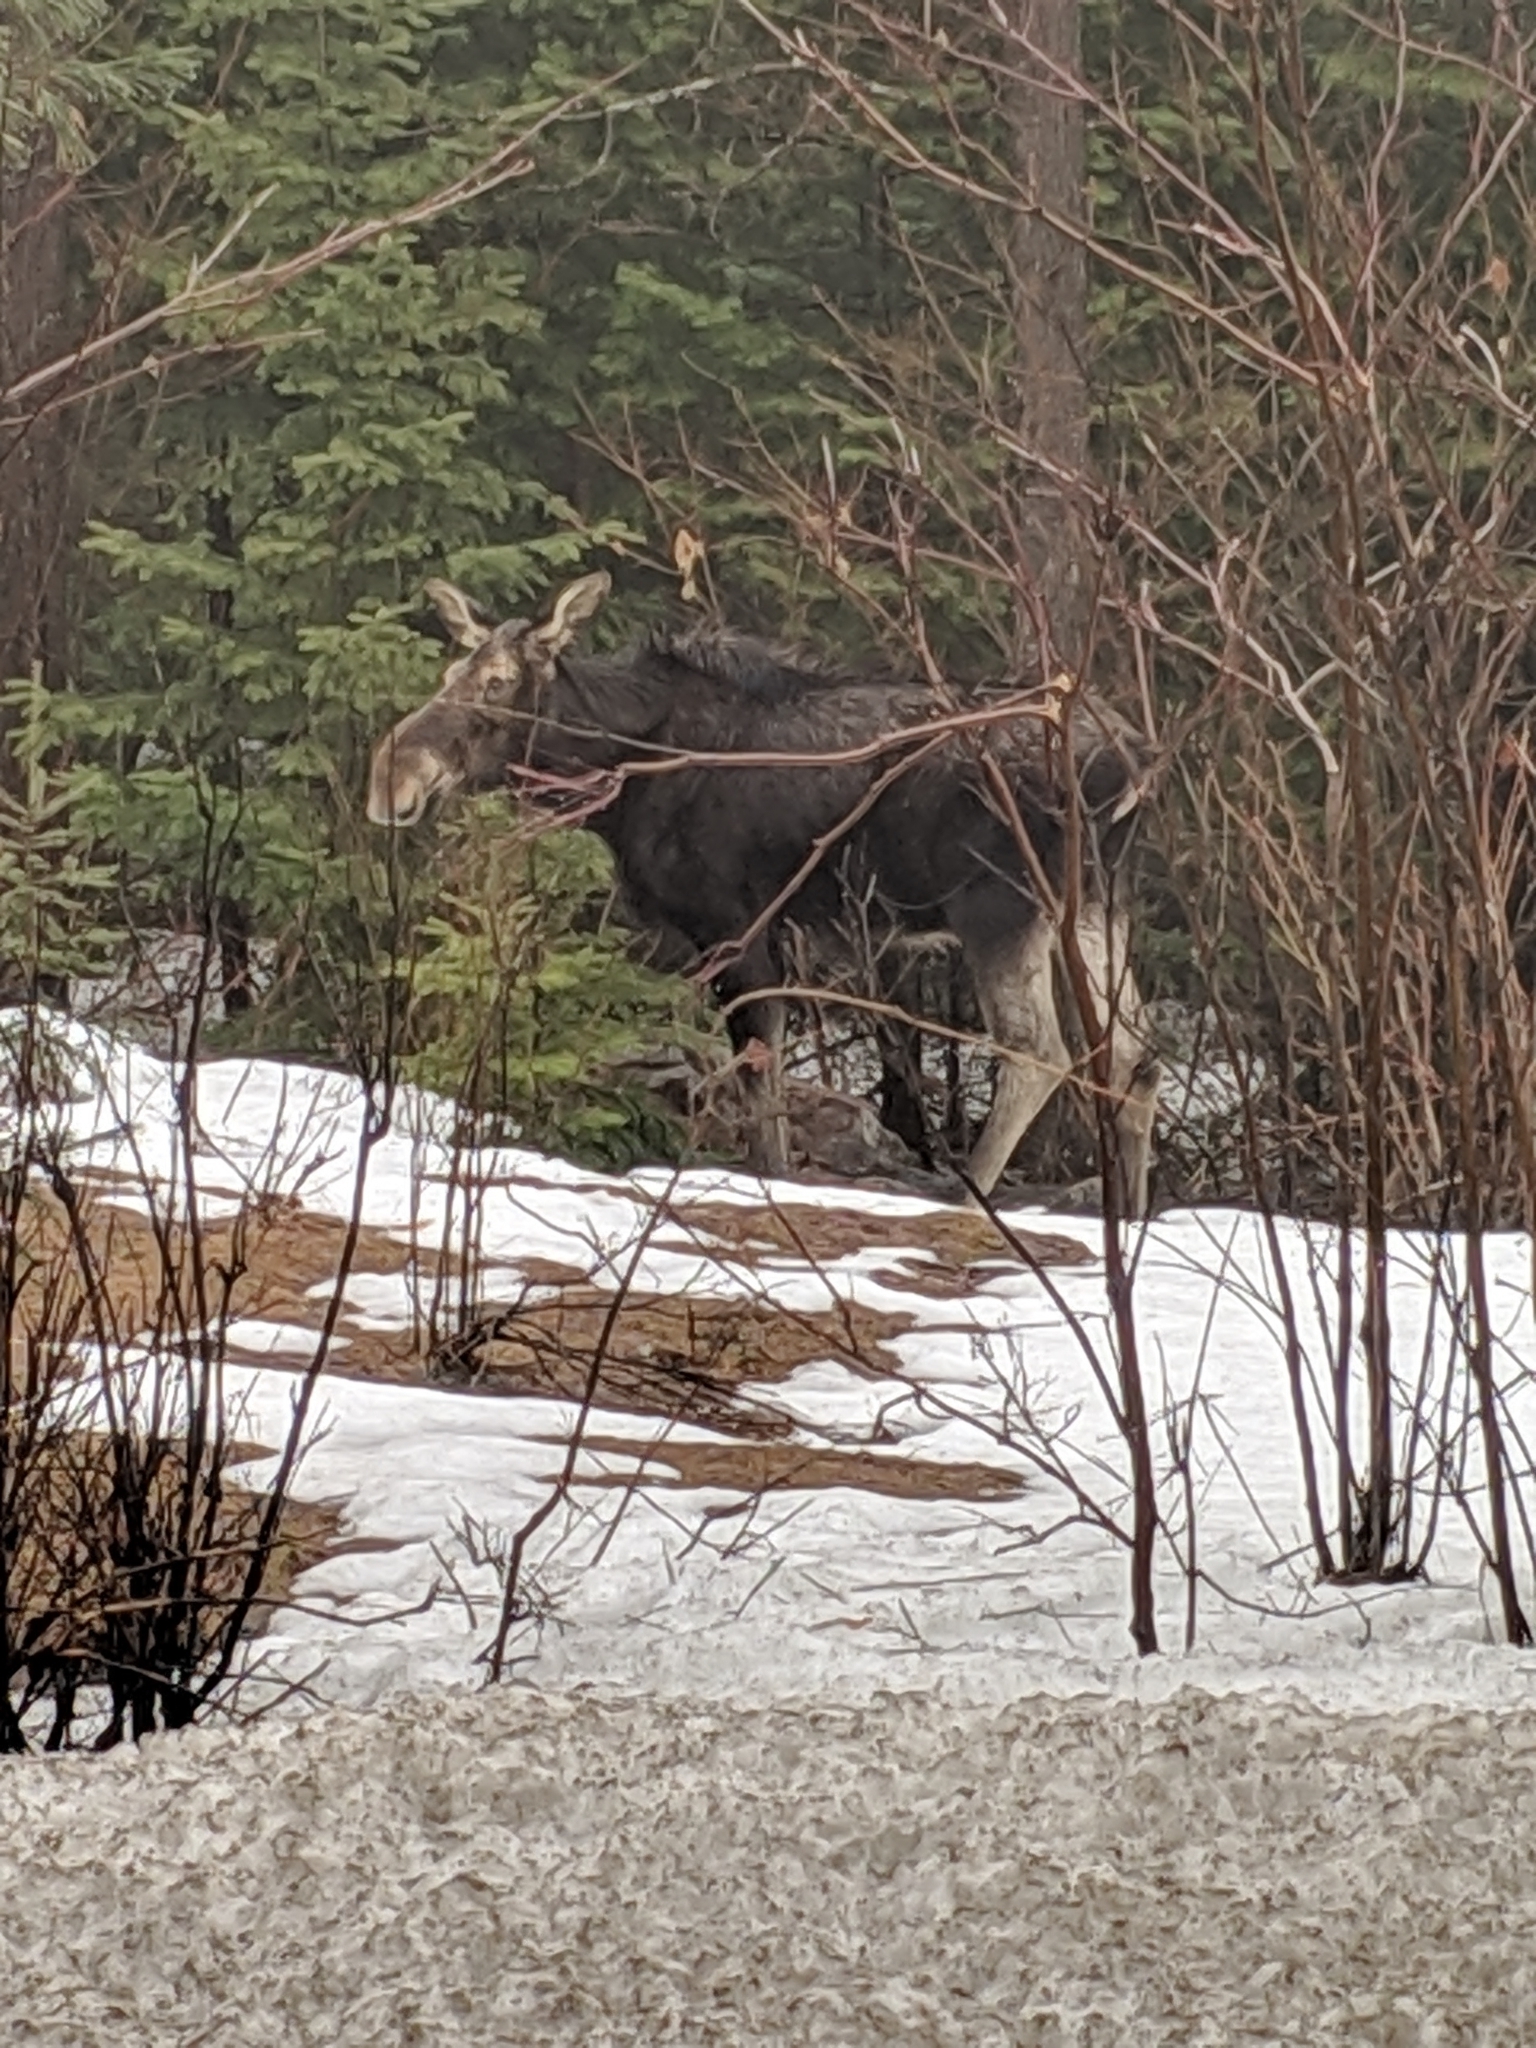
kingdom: Animalia
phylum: Chordata
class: Mammalia
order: Artiodactyla
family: Cervidae
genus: Alces
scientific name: Alces alces
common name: Moose
